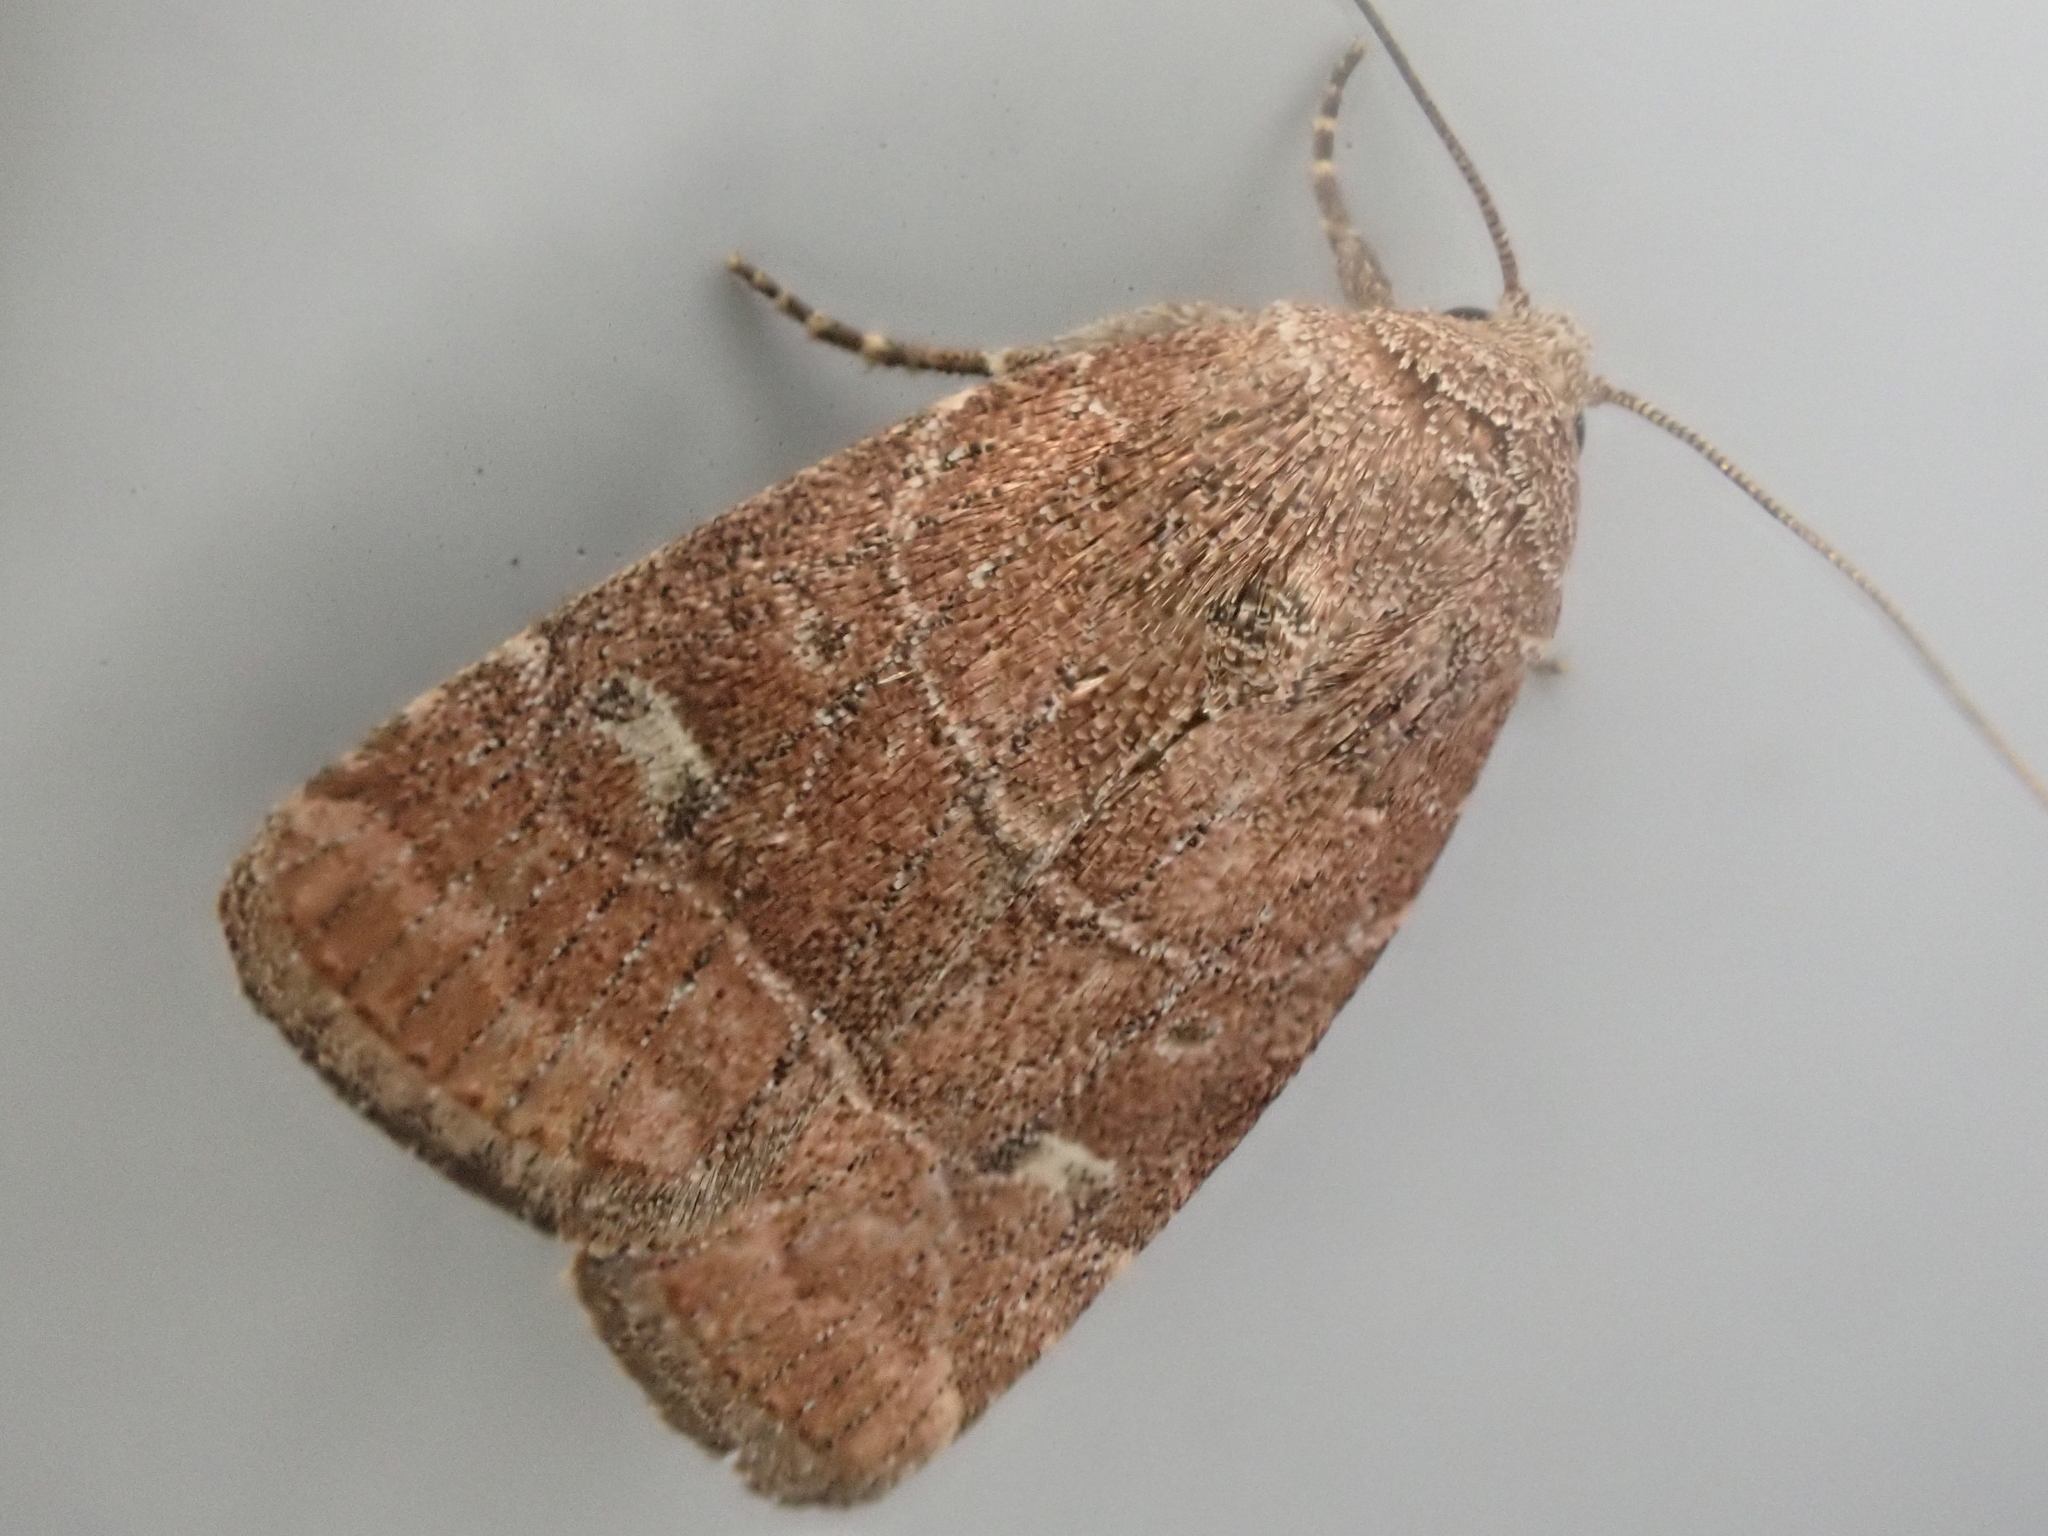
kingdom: Animalia
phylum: Arthropoda
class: Insecta
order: Lepidoptera
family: Noctuidae
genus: Elaphria
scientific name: Elaphria grata
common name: Grateful midget moth
